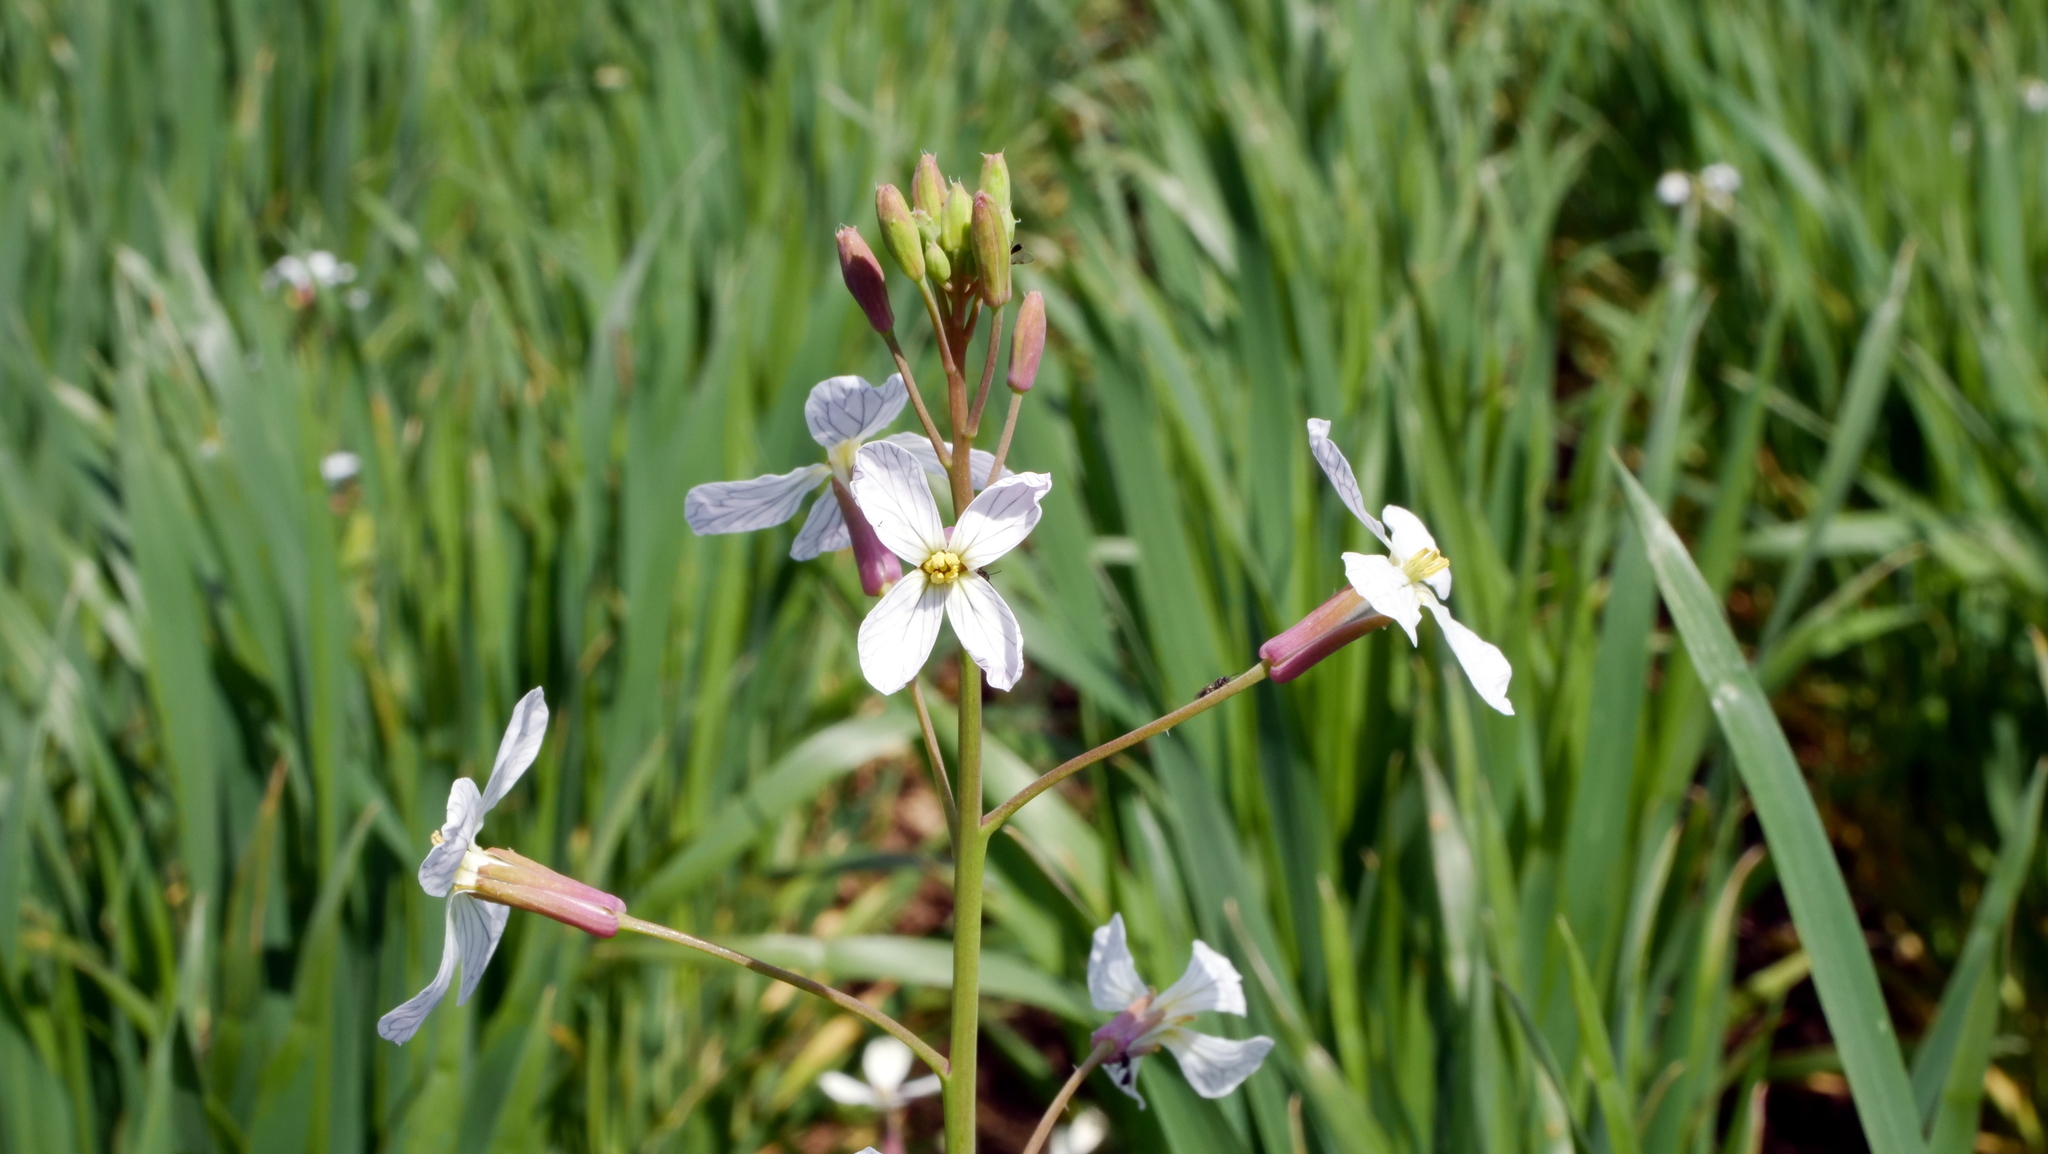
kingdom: Plantae
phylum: Tracheophyta
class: Magnoliopsida
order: Brassicales
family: Brassicaceae
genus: Raphanus
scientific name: Raphanus raphanistrum
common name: Wild radish
